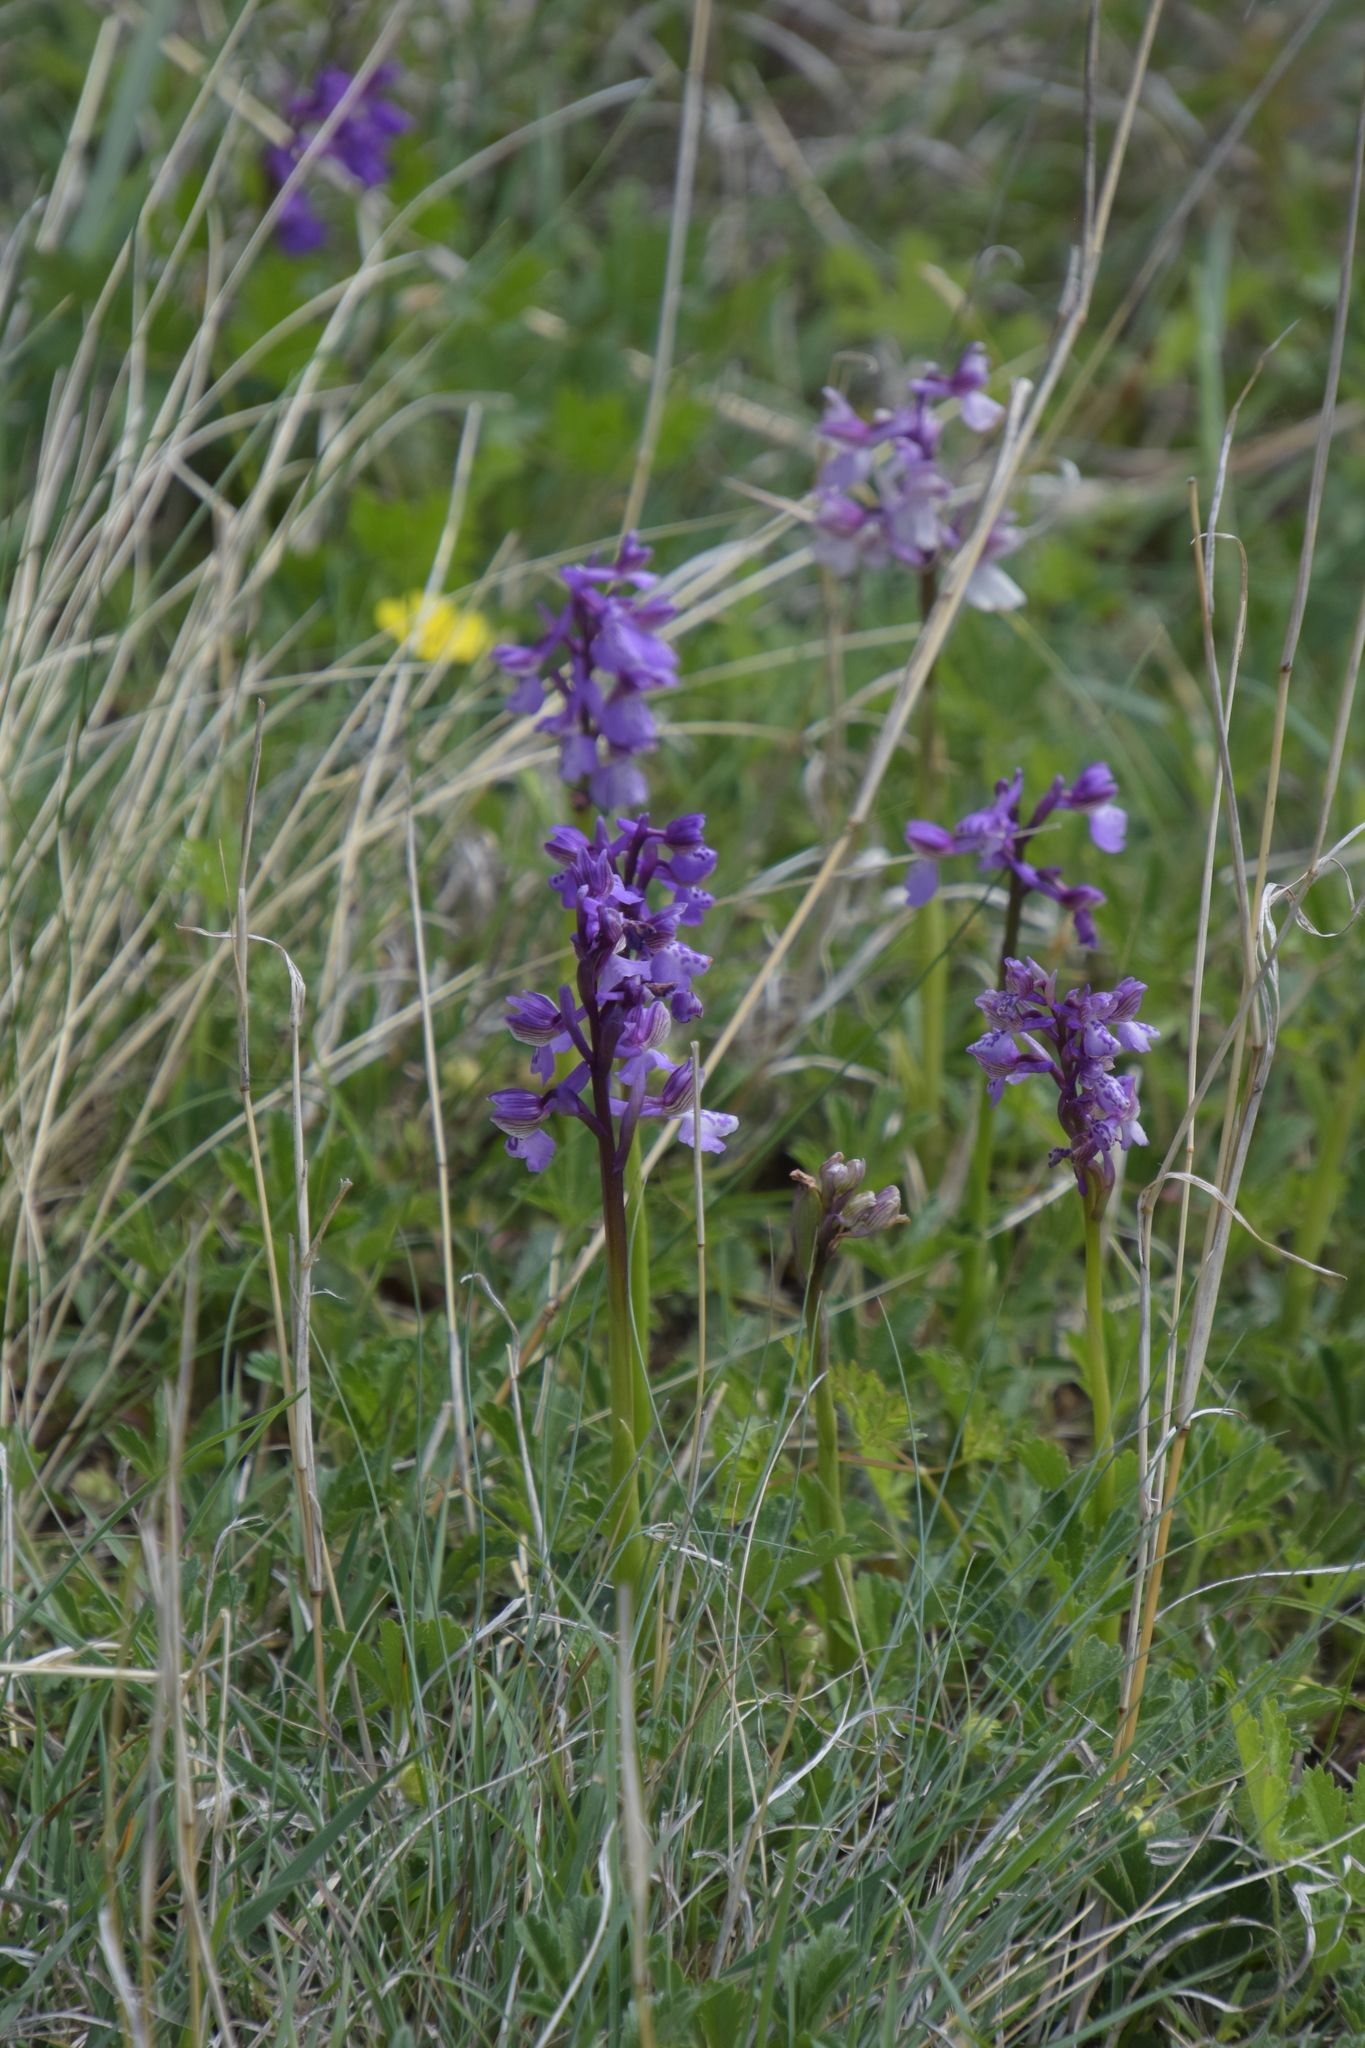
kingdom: Plantae
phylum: Tracheophyta
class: Liliopsida
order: Asparagales
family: Orchidaceae
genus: Anacamptis
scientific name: Anacamptis morio
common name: Green-winged orchid
